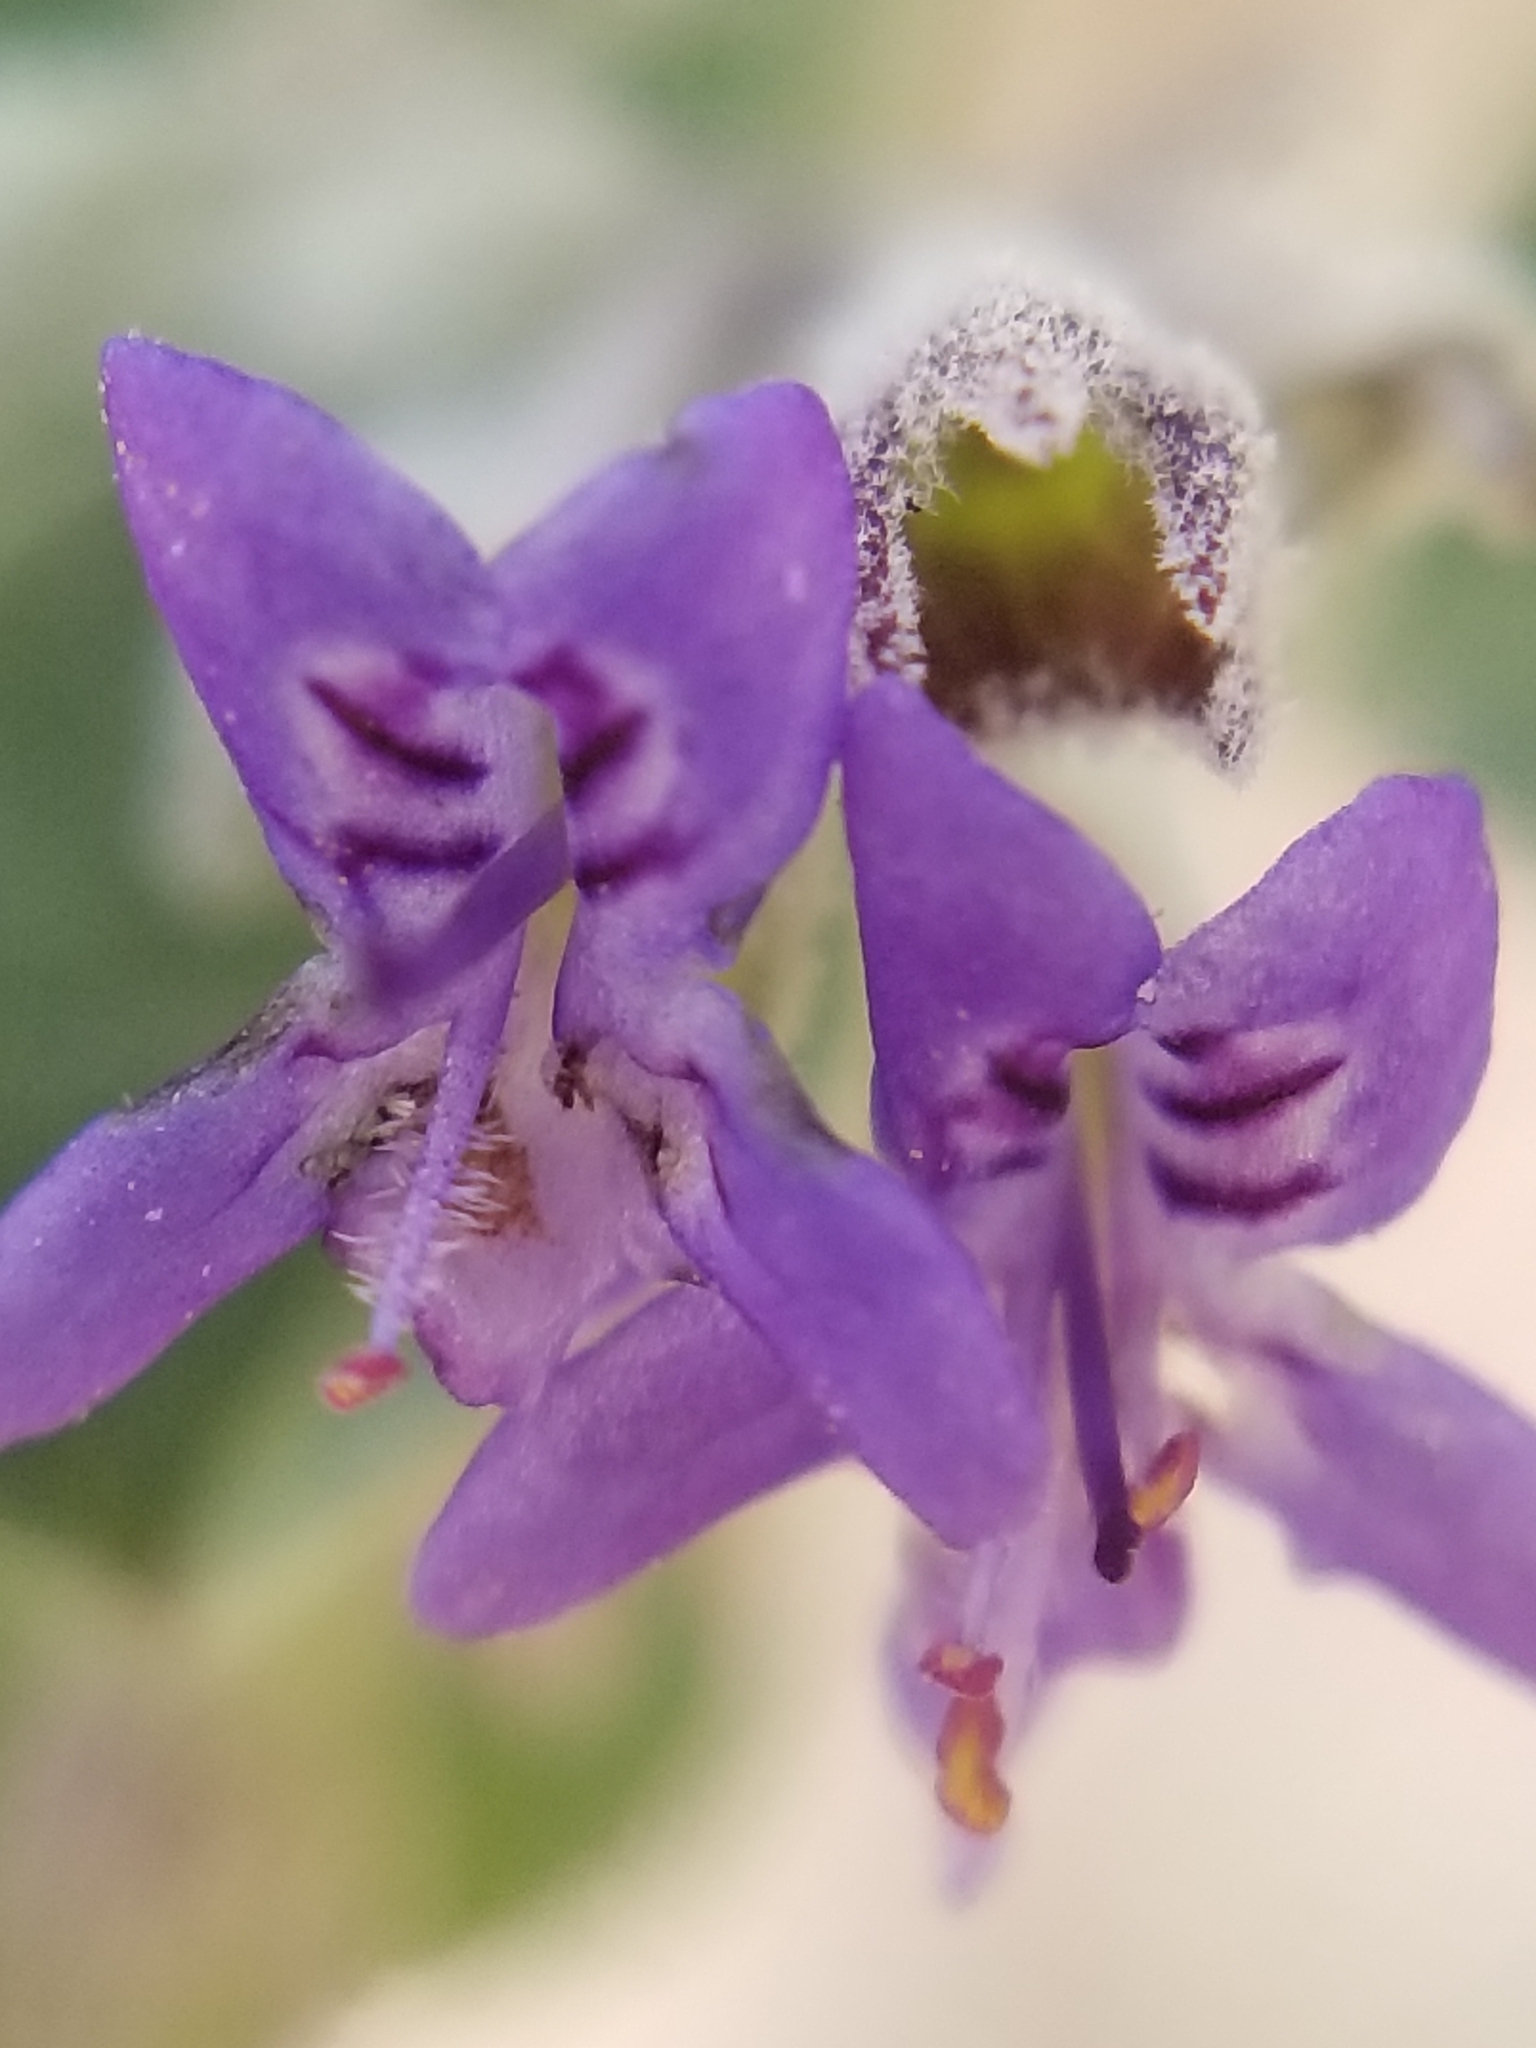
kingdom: Plantae
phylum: Tracheophyta
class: Magnoliopsida
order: Lamiales
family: Lamiaceae
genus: Condea
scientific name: Condea emoryi
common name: Chia
